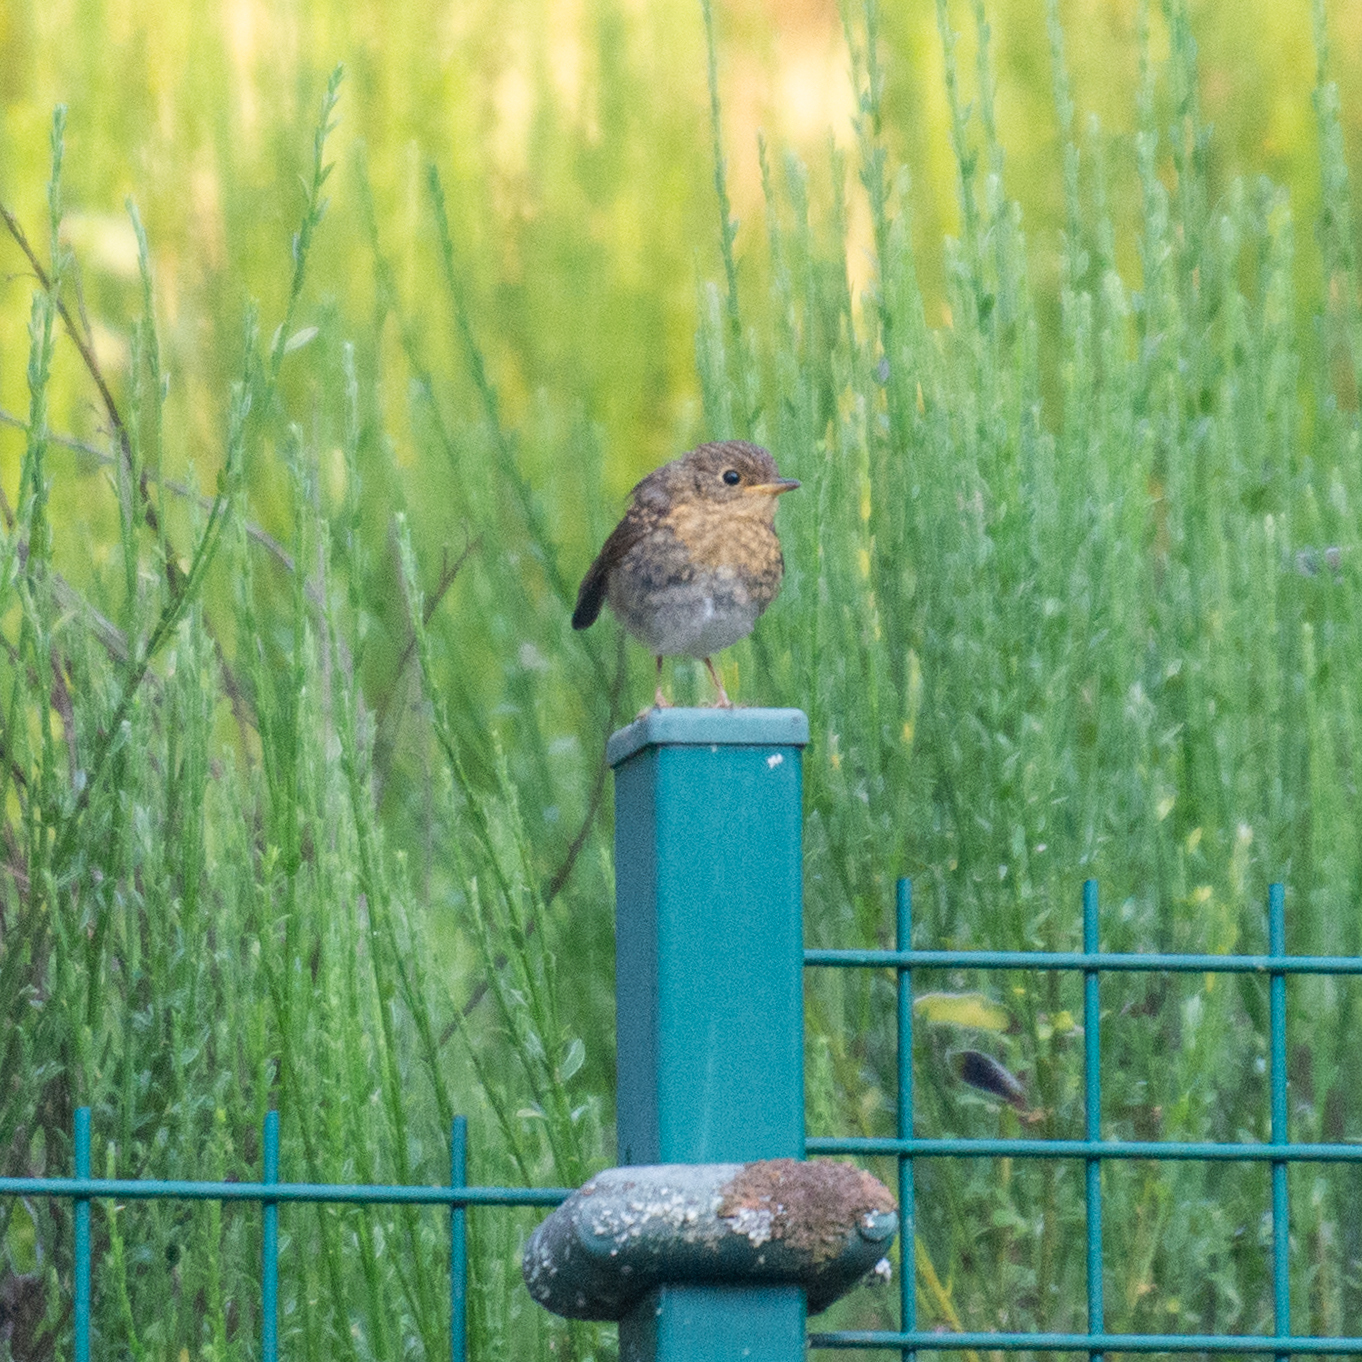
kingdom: Animalia
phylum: Chordata
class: Aves
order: Passeriformes
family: Muscicapidae
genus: Erithacus
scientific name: Erithacus rubecula
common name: European robin
